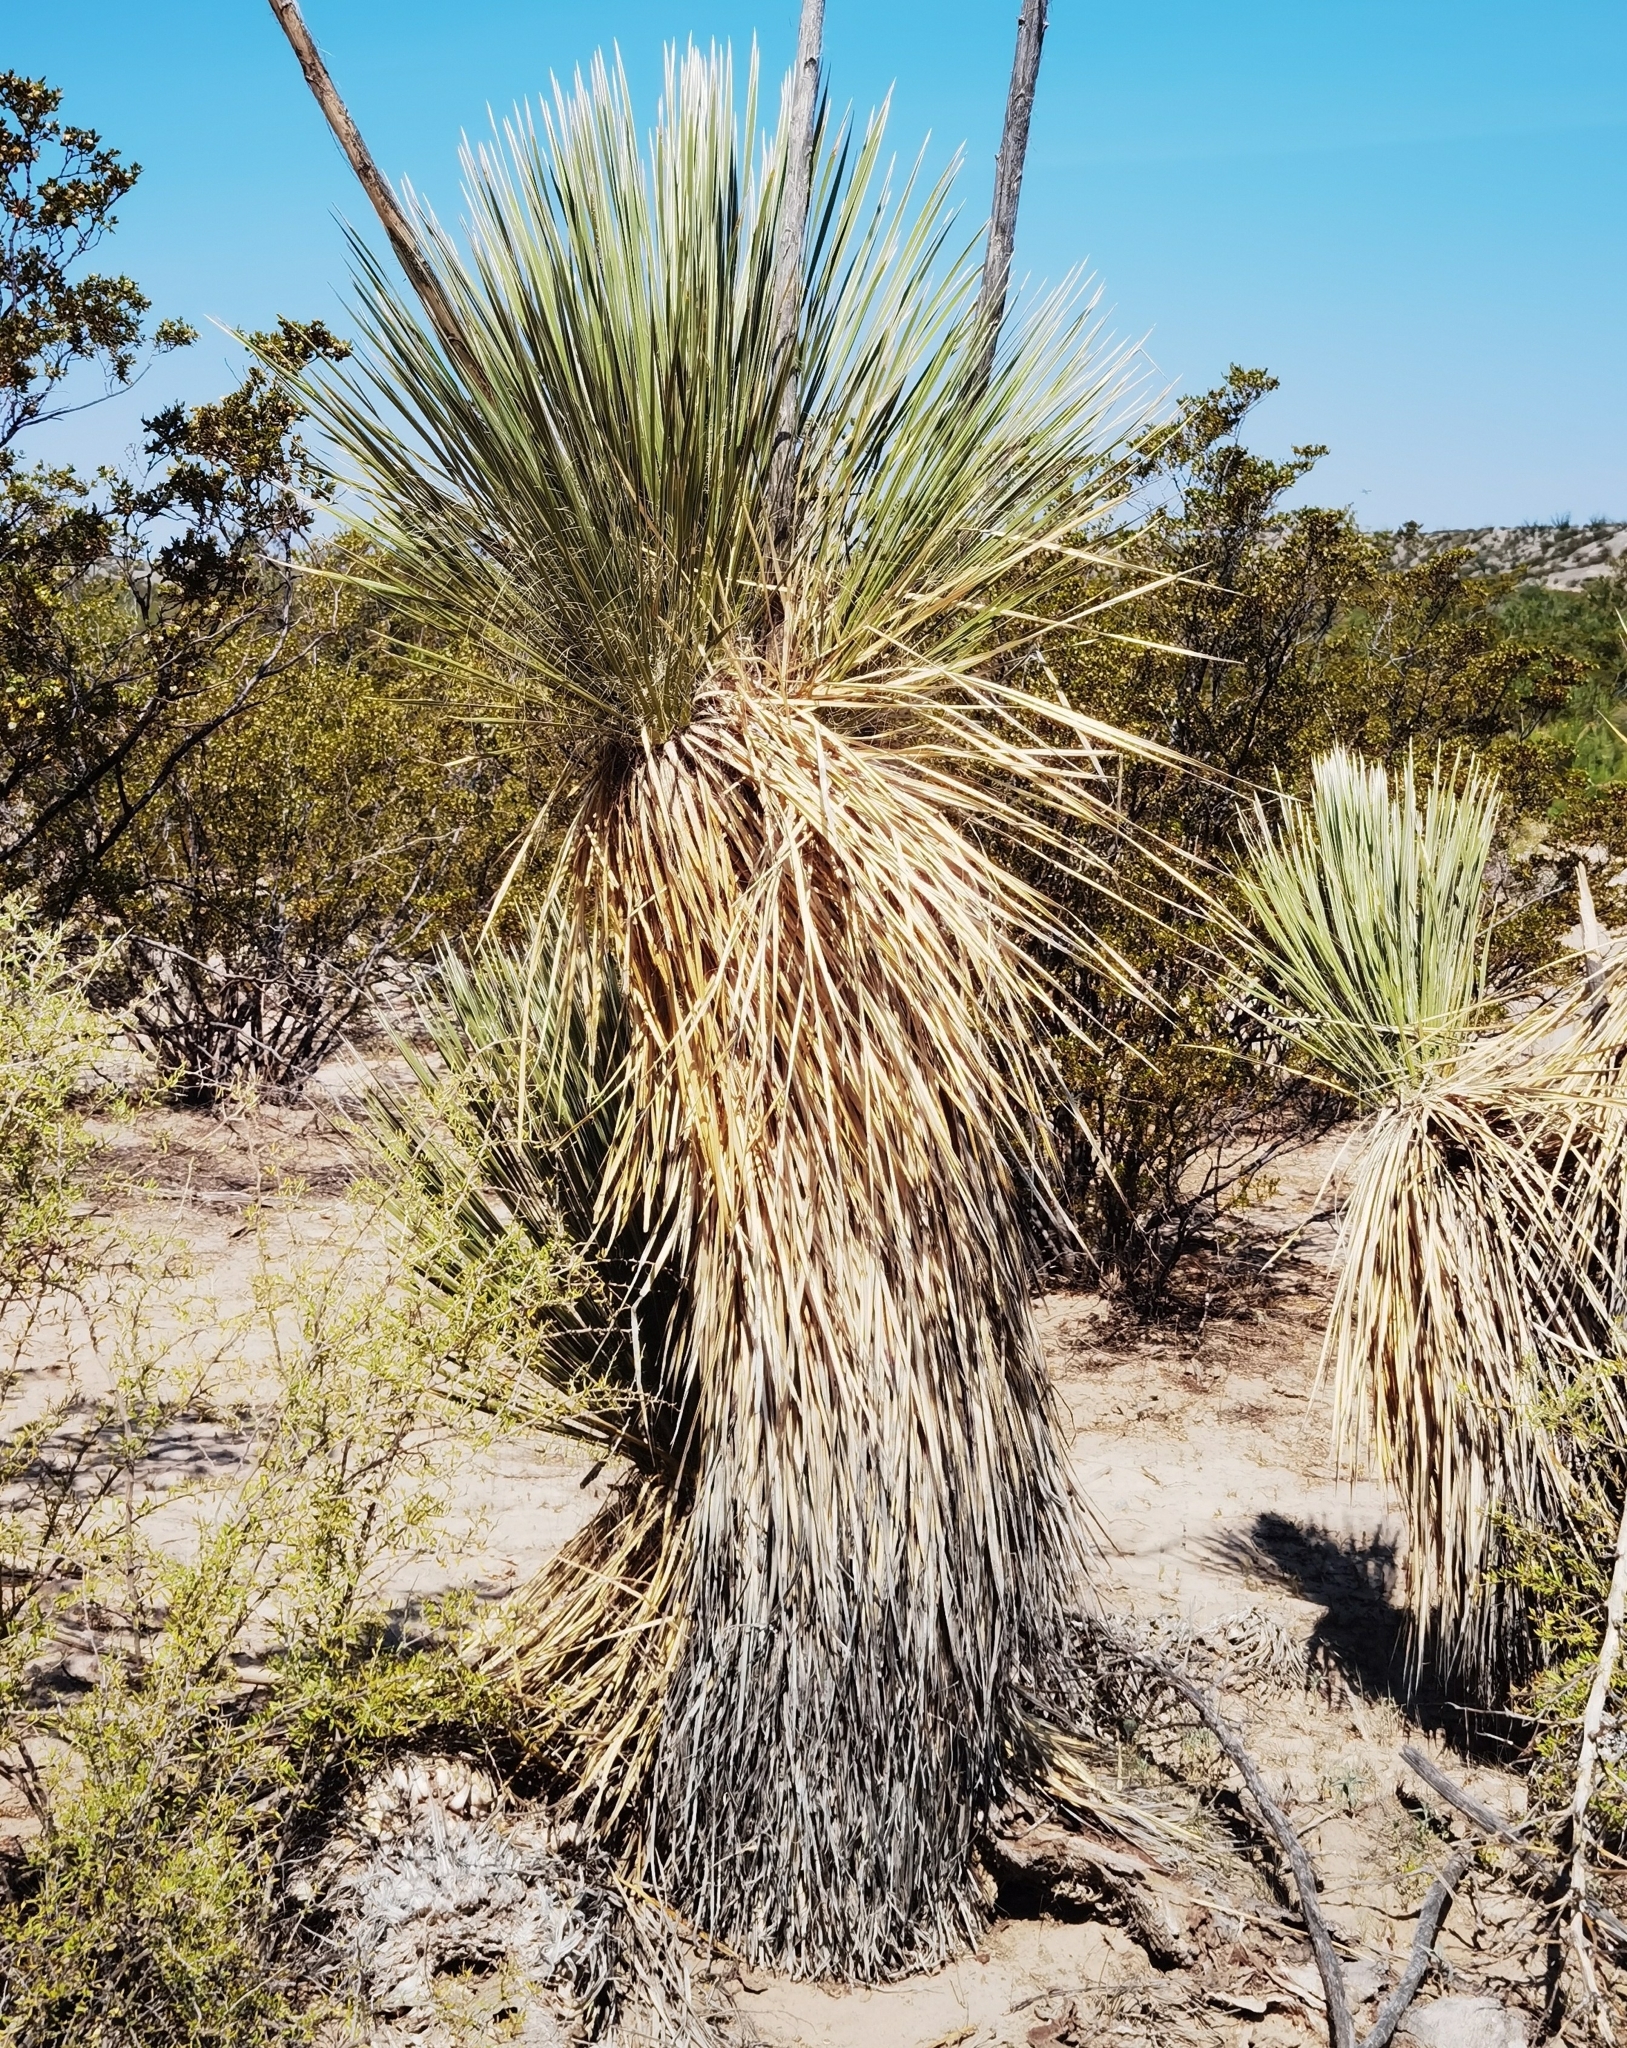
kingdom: Plantae
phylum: Tracheophyta
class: Liliopsida
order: Asparagales
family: Asparagaceae
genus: Yucca
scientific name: Yucca elata
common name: Palmella
